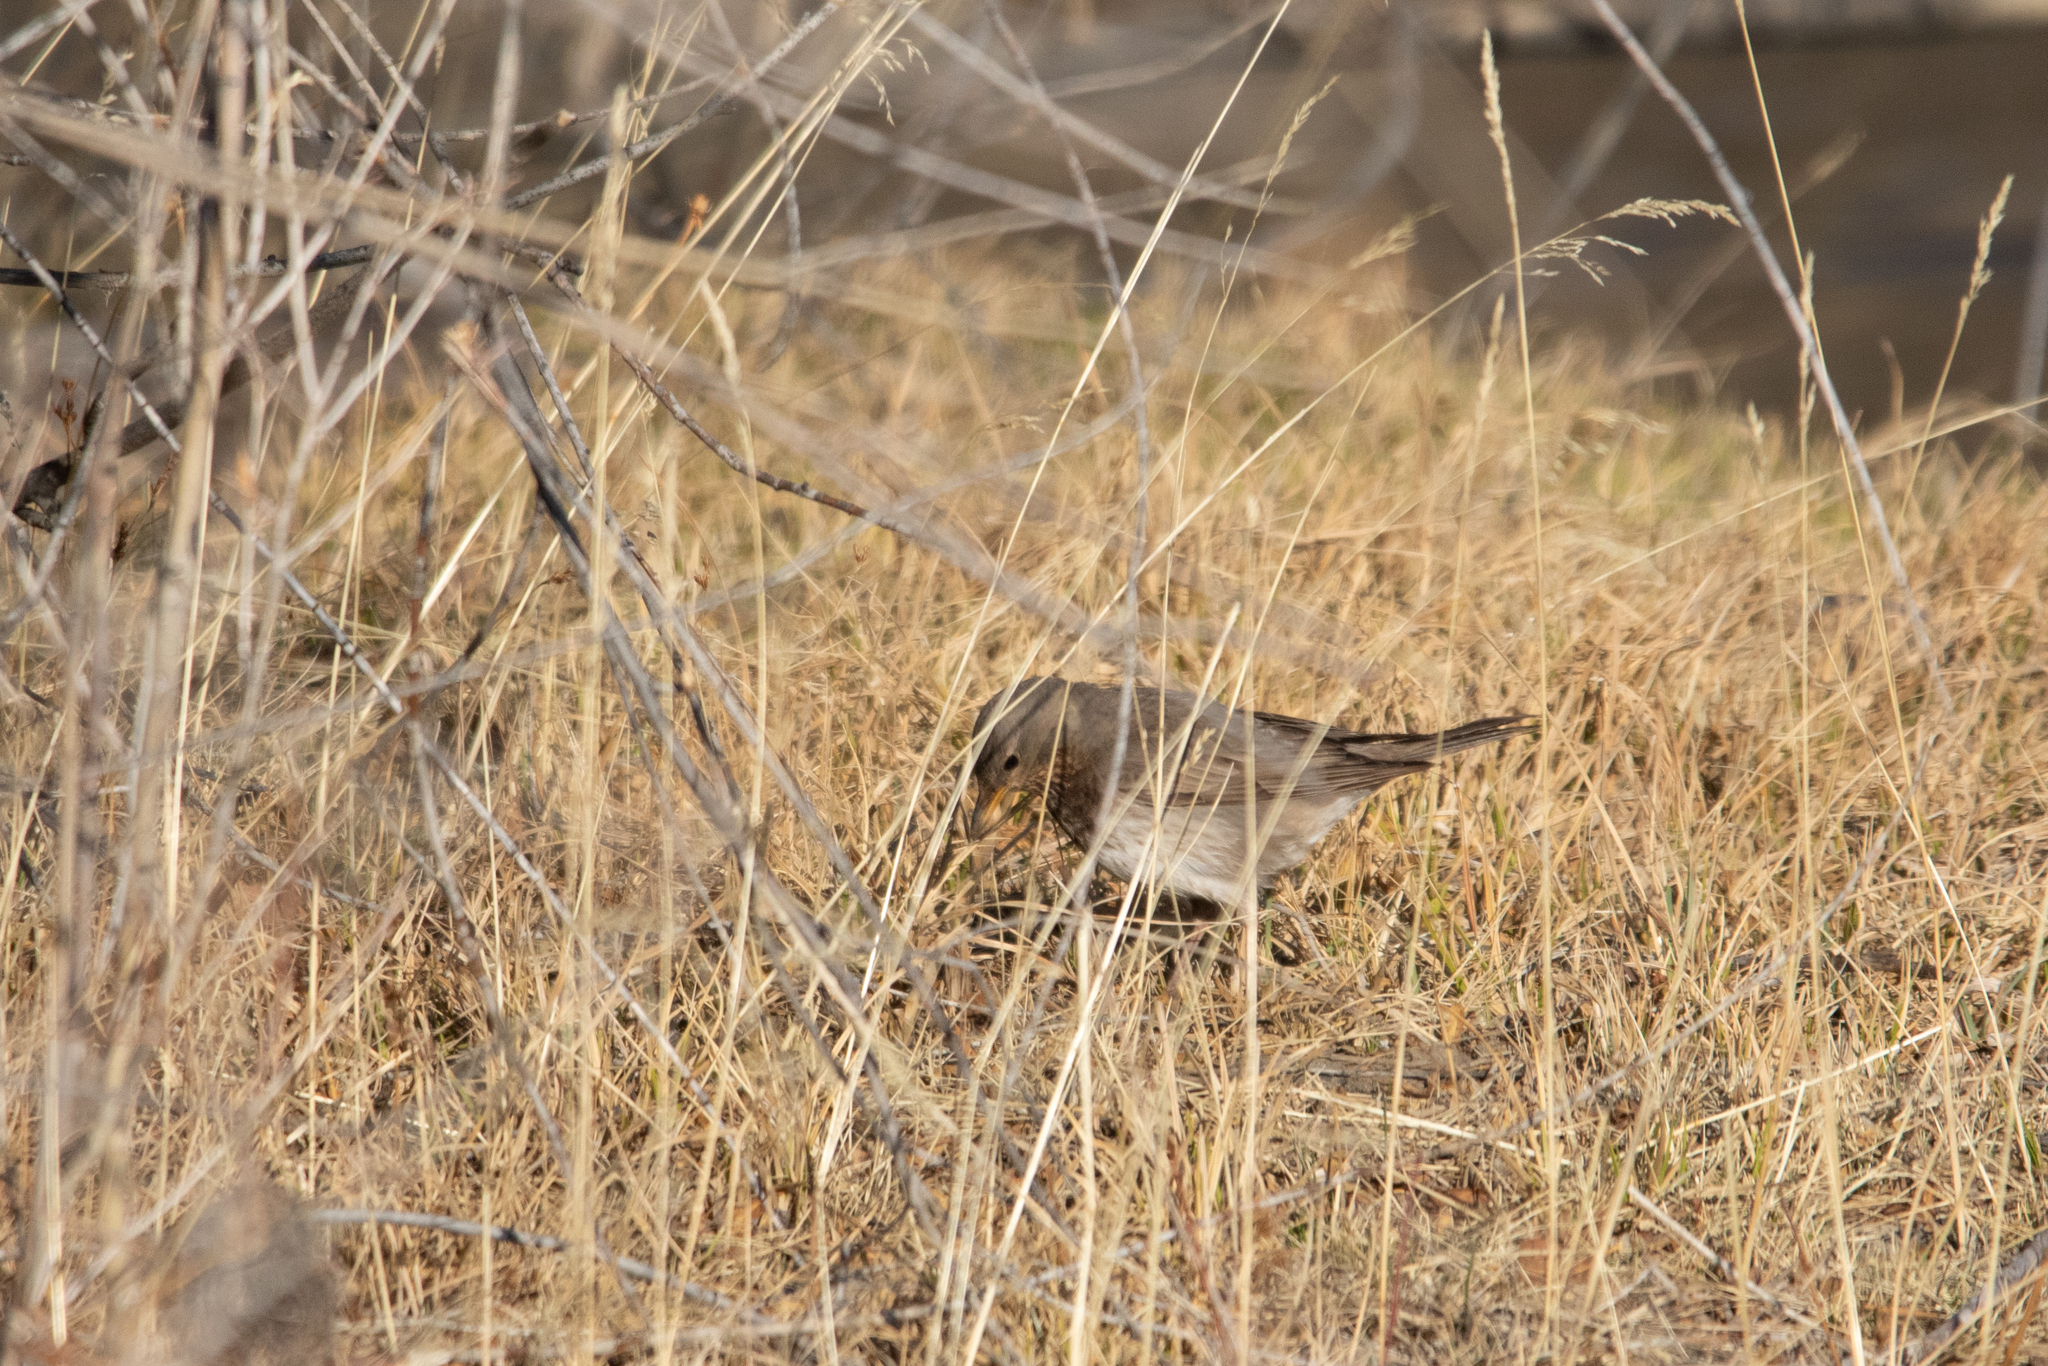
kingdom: Animalia
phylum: Chordata
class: Aves
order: Passeriformes
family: Turdidae
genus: Turdus
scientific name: Turdus atrogularis
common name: Black-throated thrush
